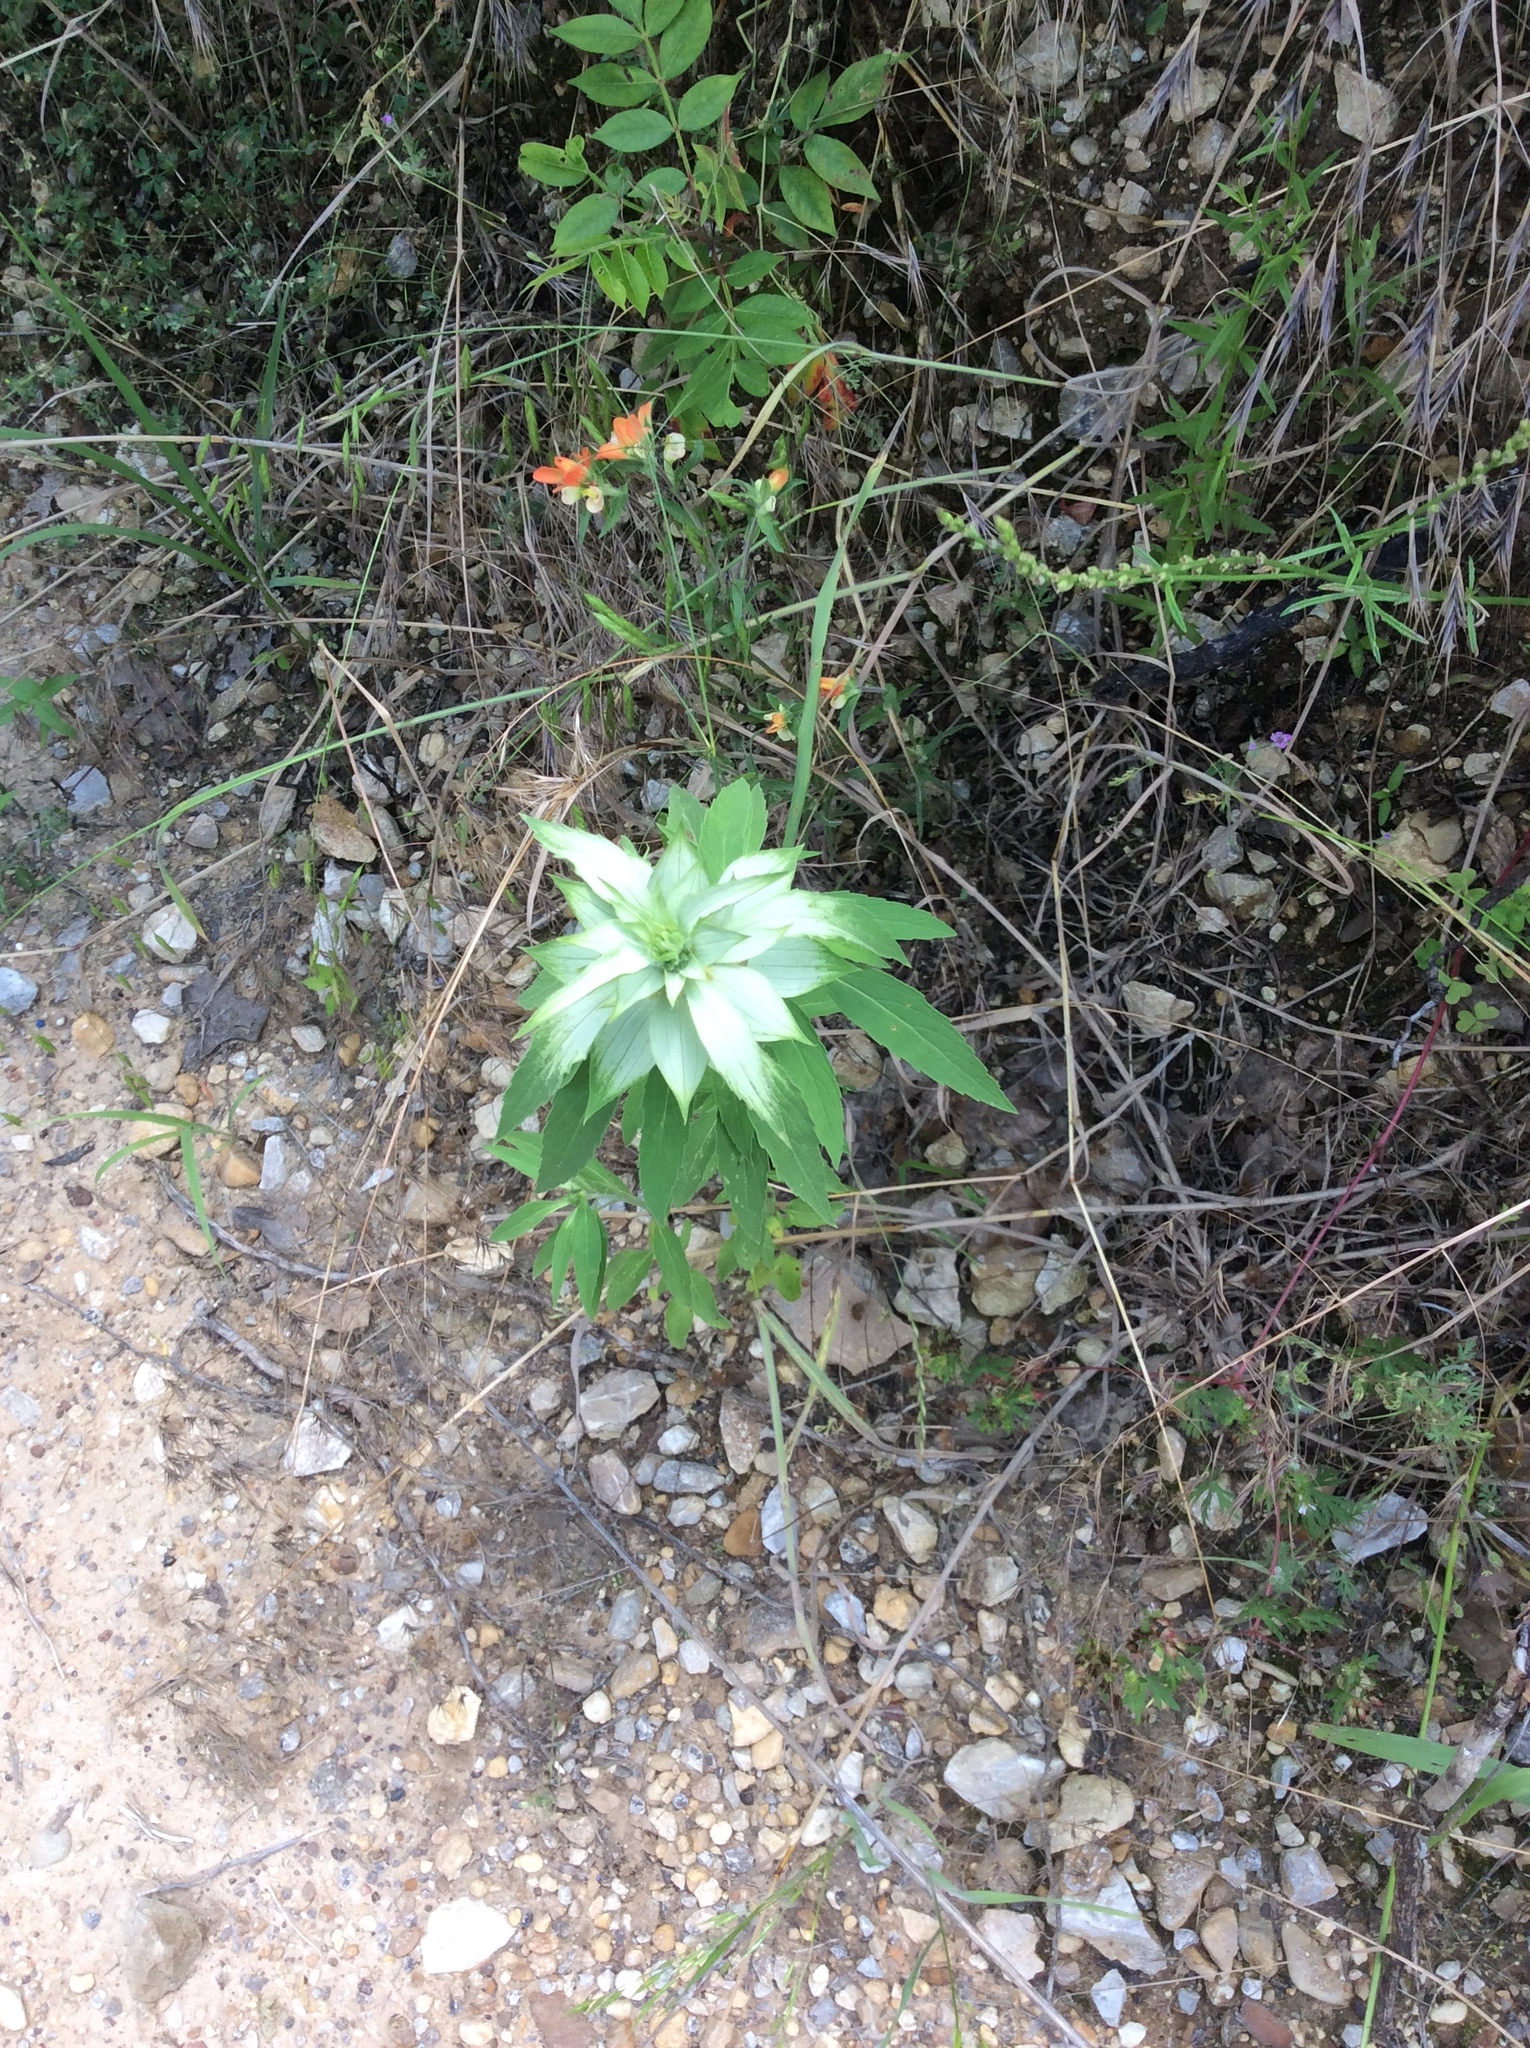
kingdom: Plantae
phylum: Tracheophyta
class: Magnoliopsida
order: Lamiales
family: Lamiaceae
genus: Monarda
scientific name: Monarda punctata
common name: Dotted monarda
